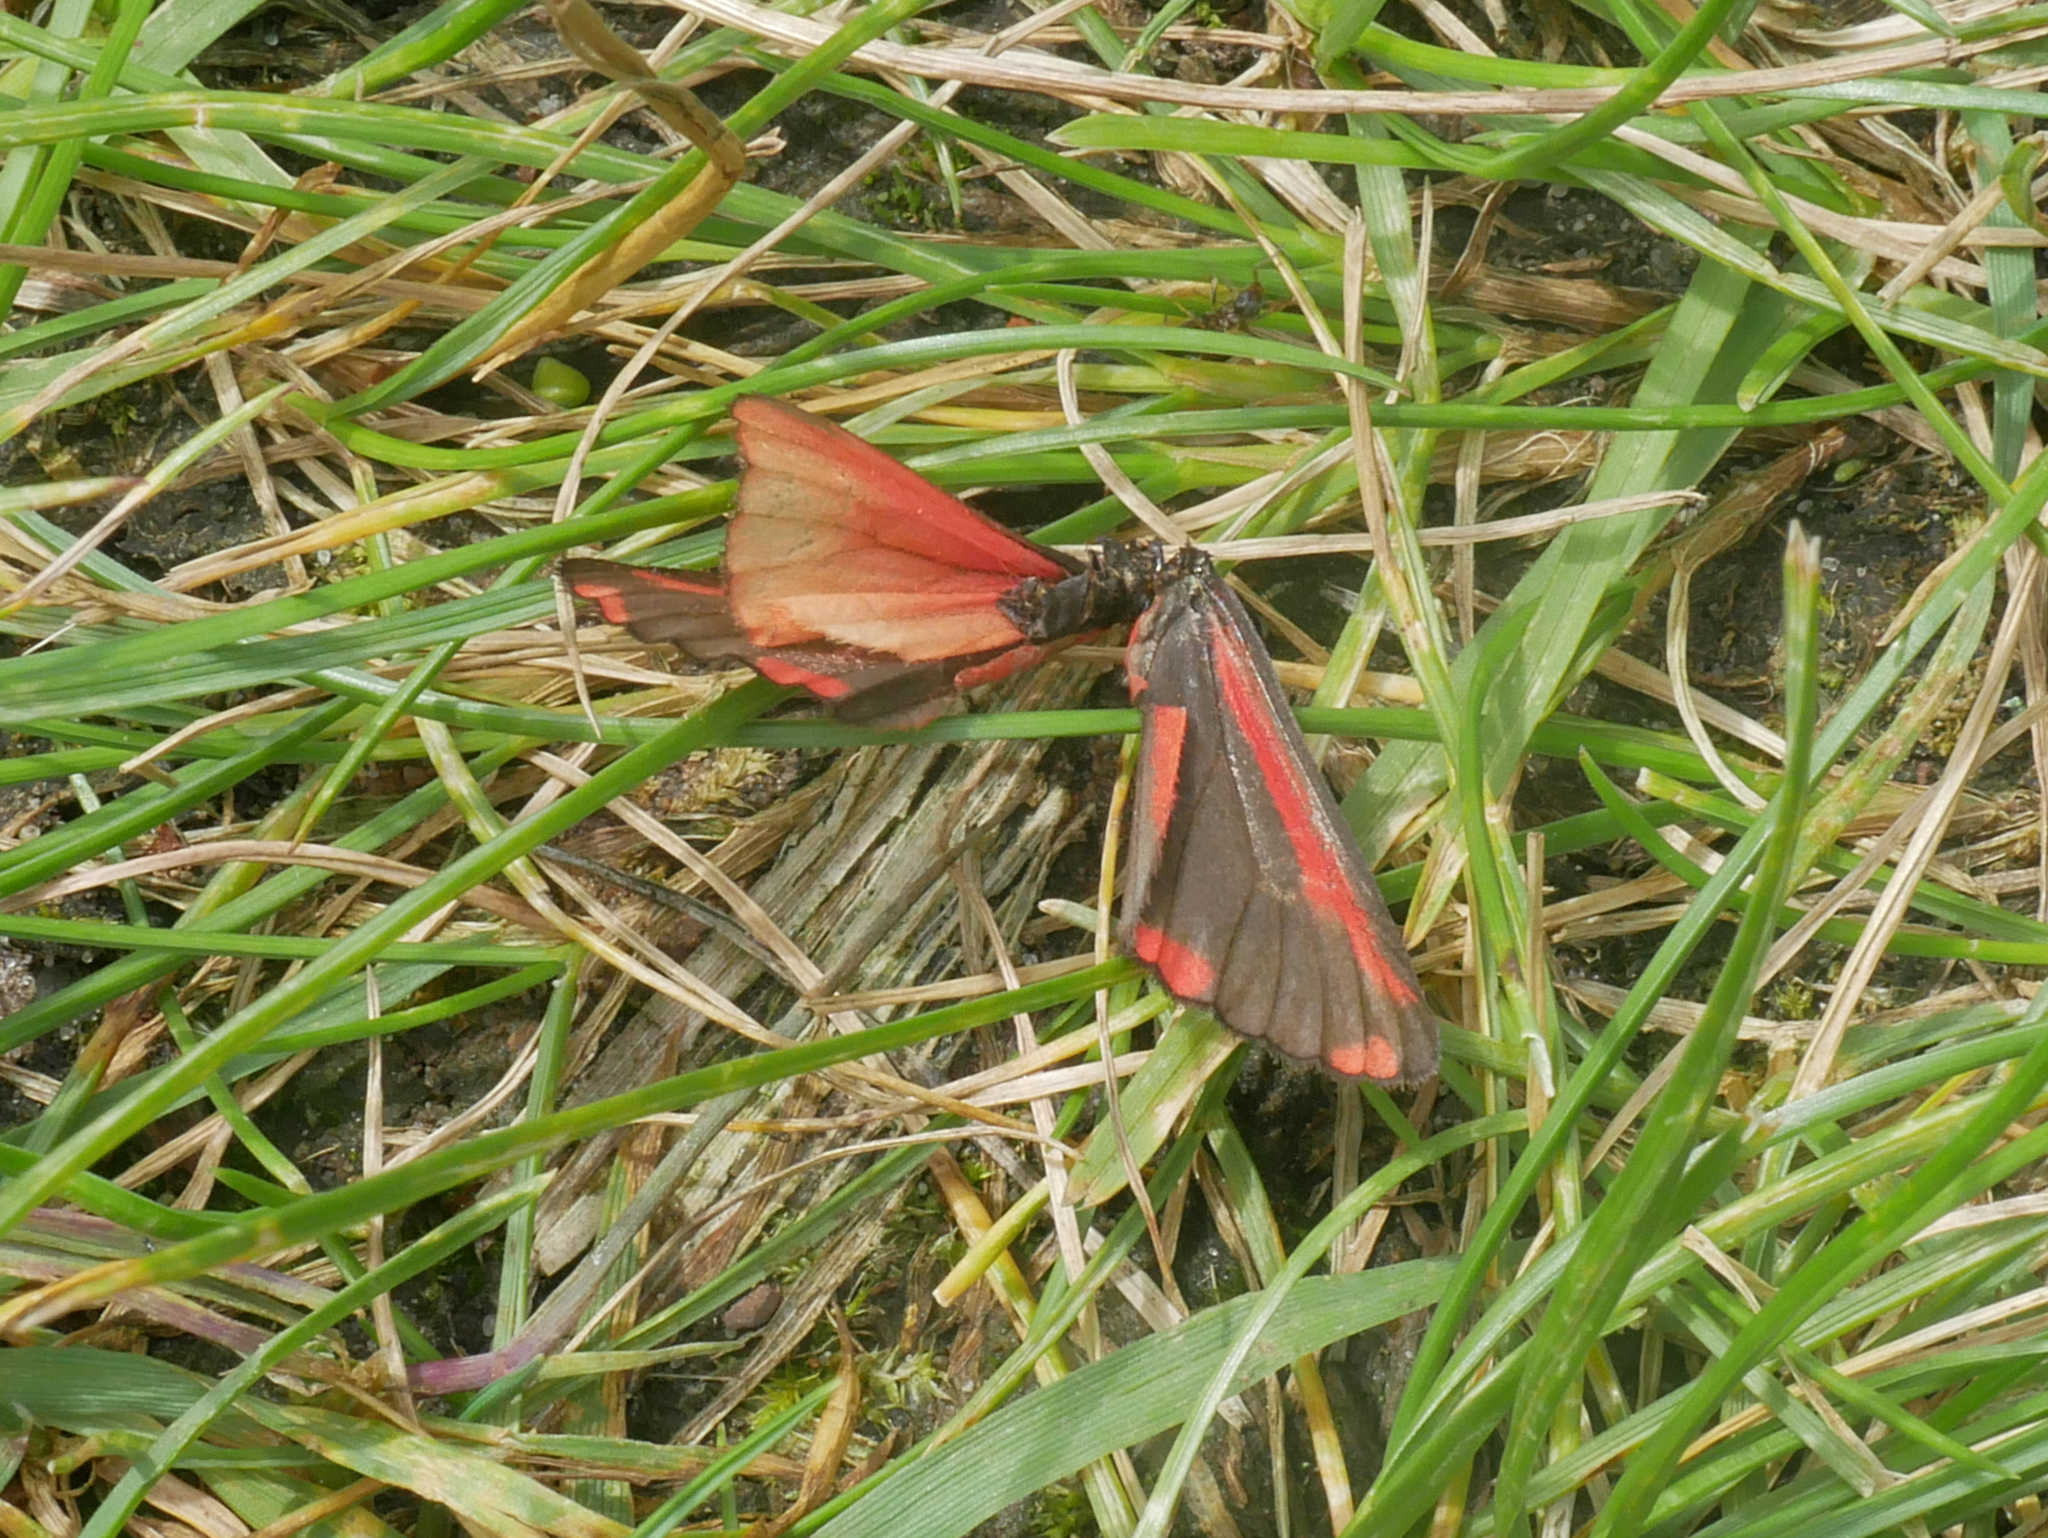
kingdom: Animalia
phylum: Arthropoda
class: Insecta
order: Lepidoptera
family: Erebidae
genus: Tyria
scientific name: Tyria jacobaeae
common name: Cinnabar
